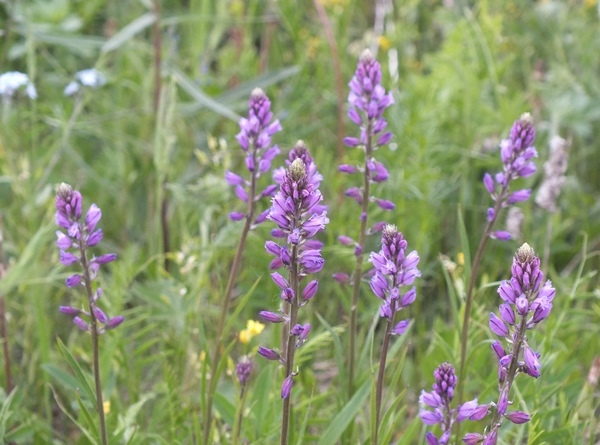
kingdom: Plantae
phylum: Tracheophyta
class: Magnoliopsida
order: Fabales
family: Polygalaceae
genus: Polygala
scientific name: Polygala comosa
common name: Tufted milkwort
